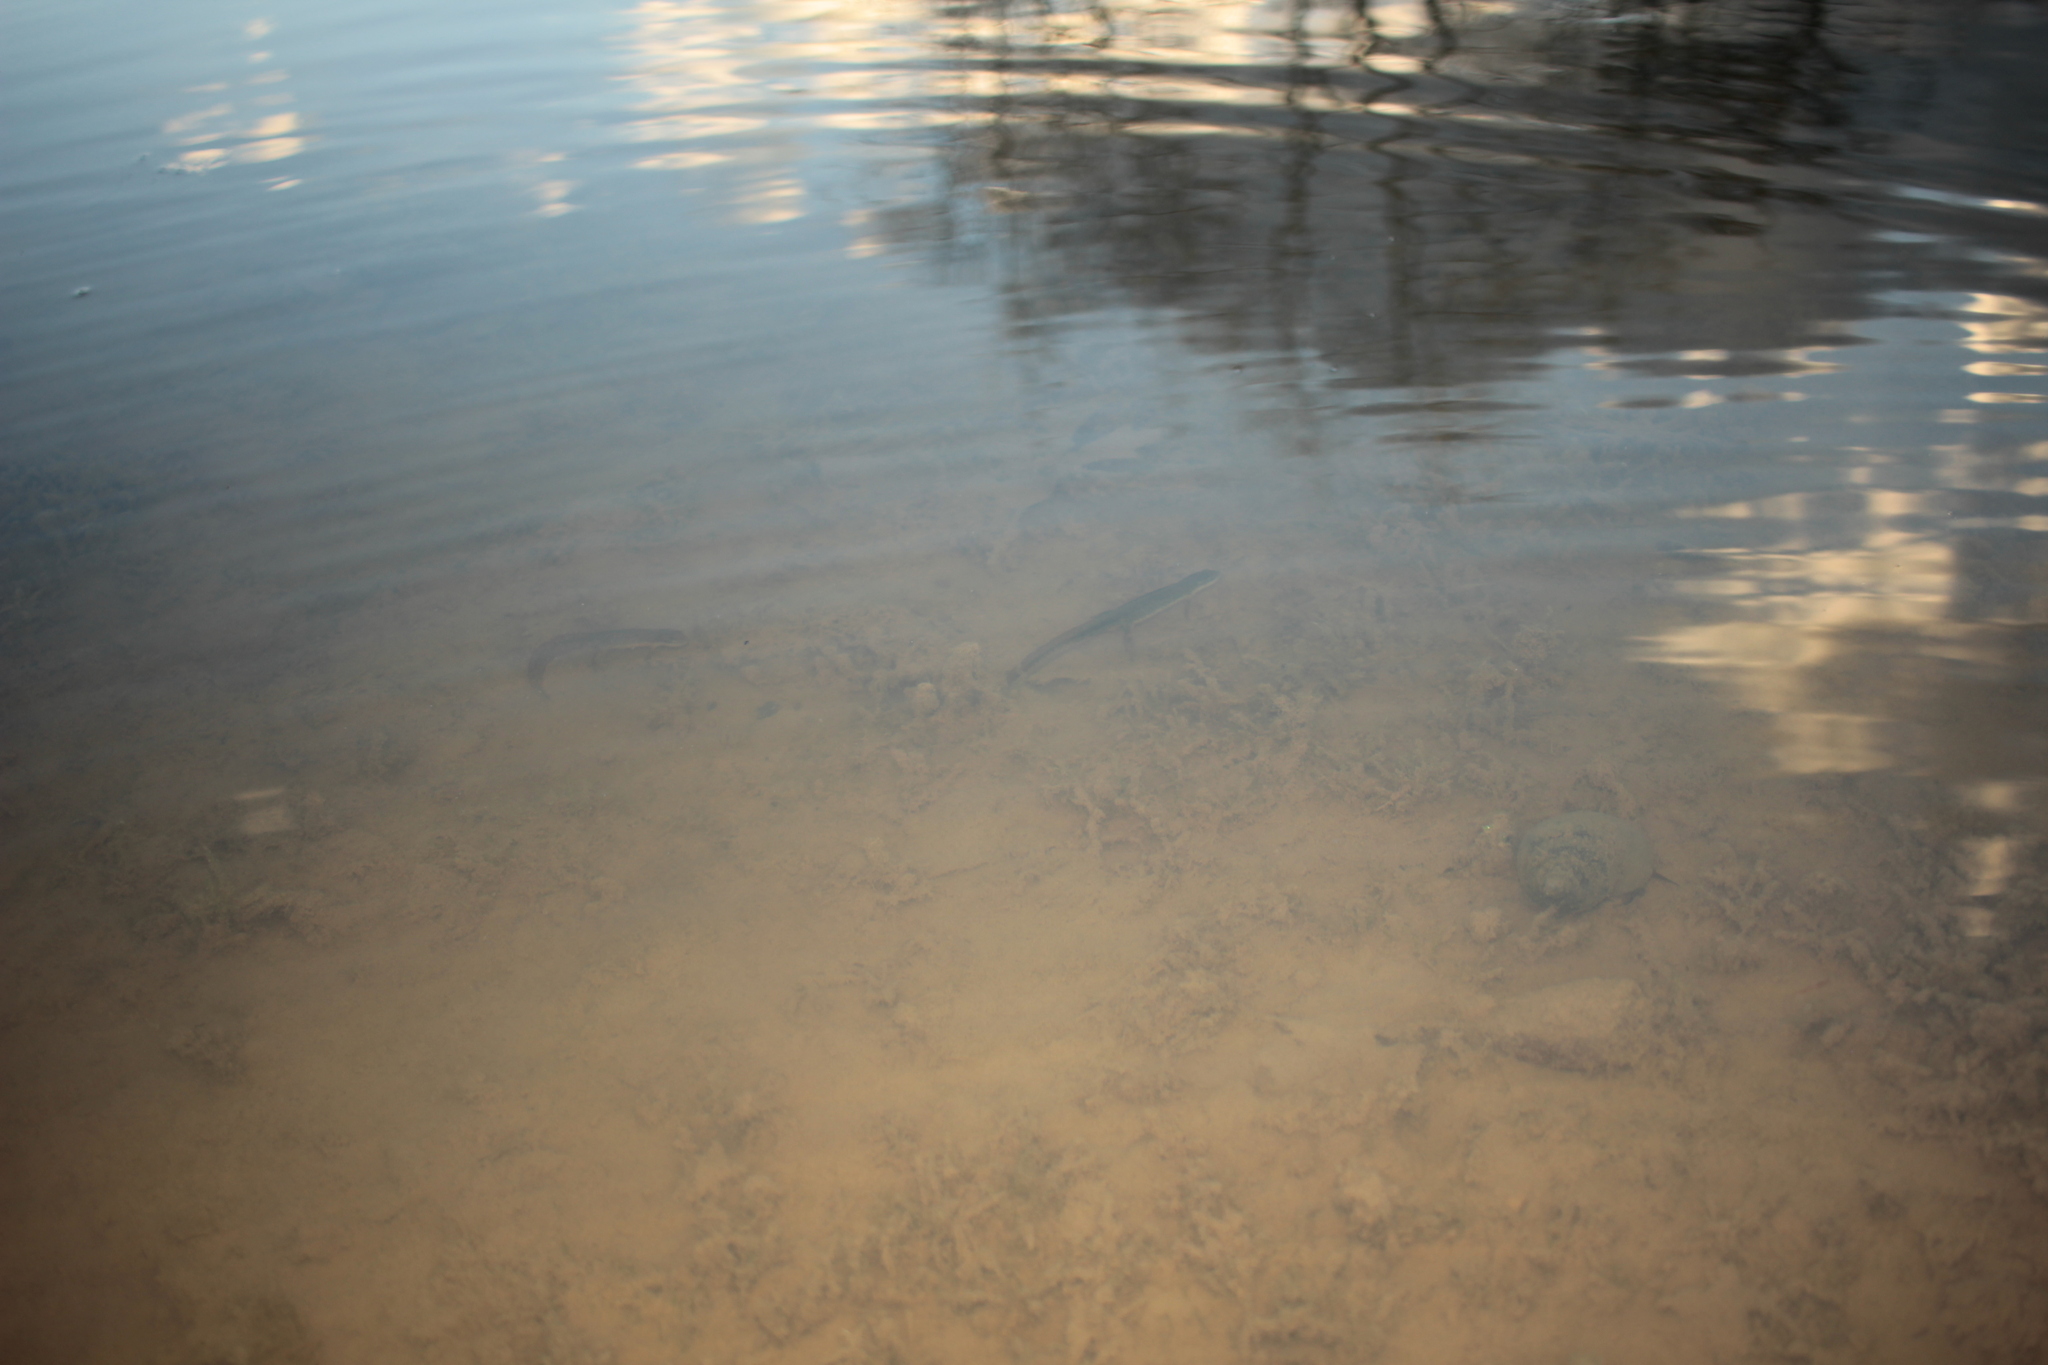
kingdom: Animalia
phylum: Chordata
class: Amphibia
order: Caudata
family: Salamandridae
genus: Notophthalmus
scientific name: Notophthalmus viridescens
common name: Eastern newt
